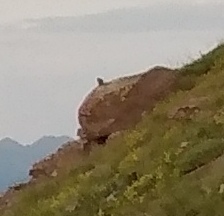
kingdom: Animalia
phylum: Chordata
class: Mammalia
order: Lagomorpha
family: Ochotonidae
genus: Ochotona
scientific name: Ochotona princeps
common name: American pika
